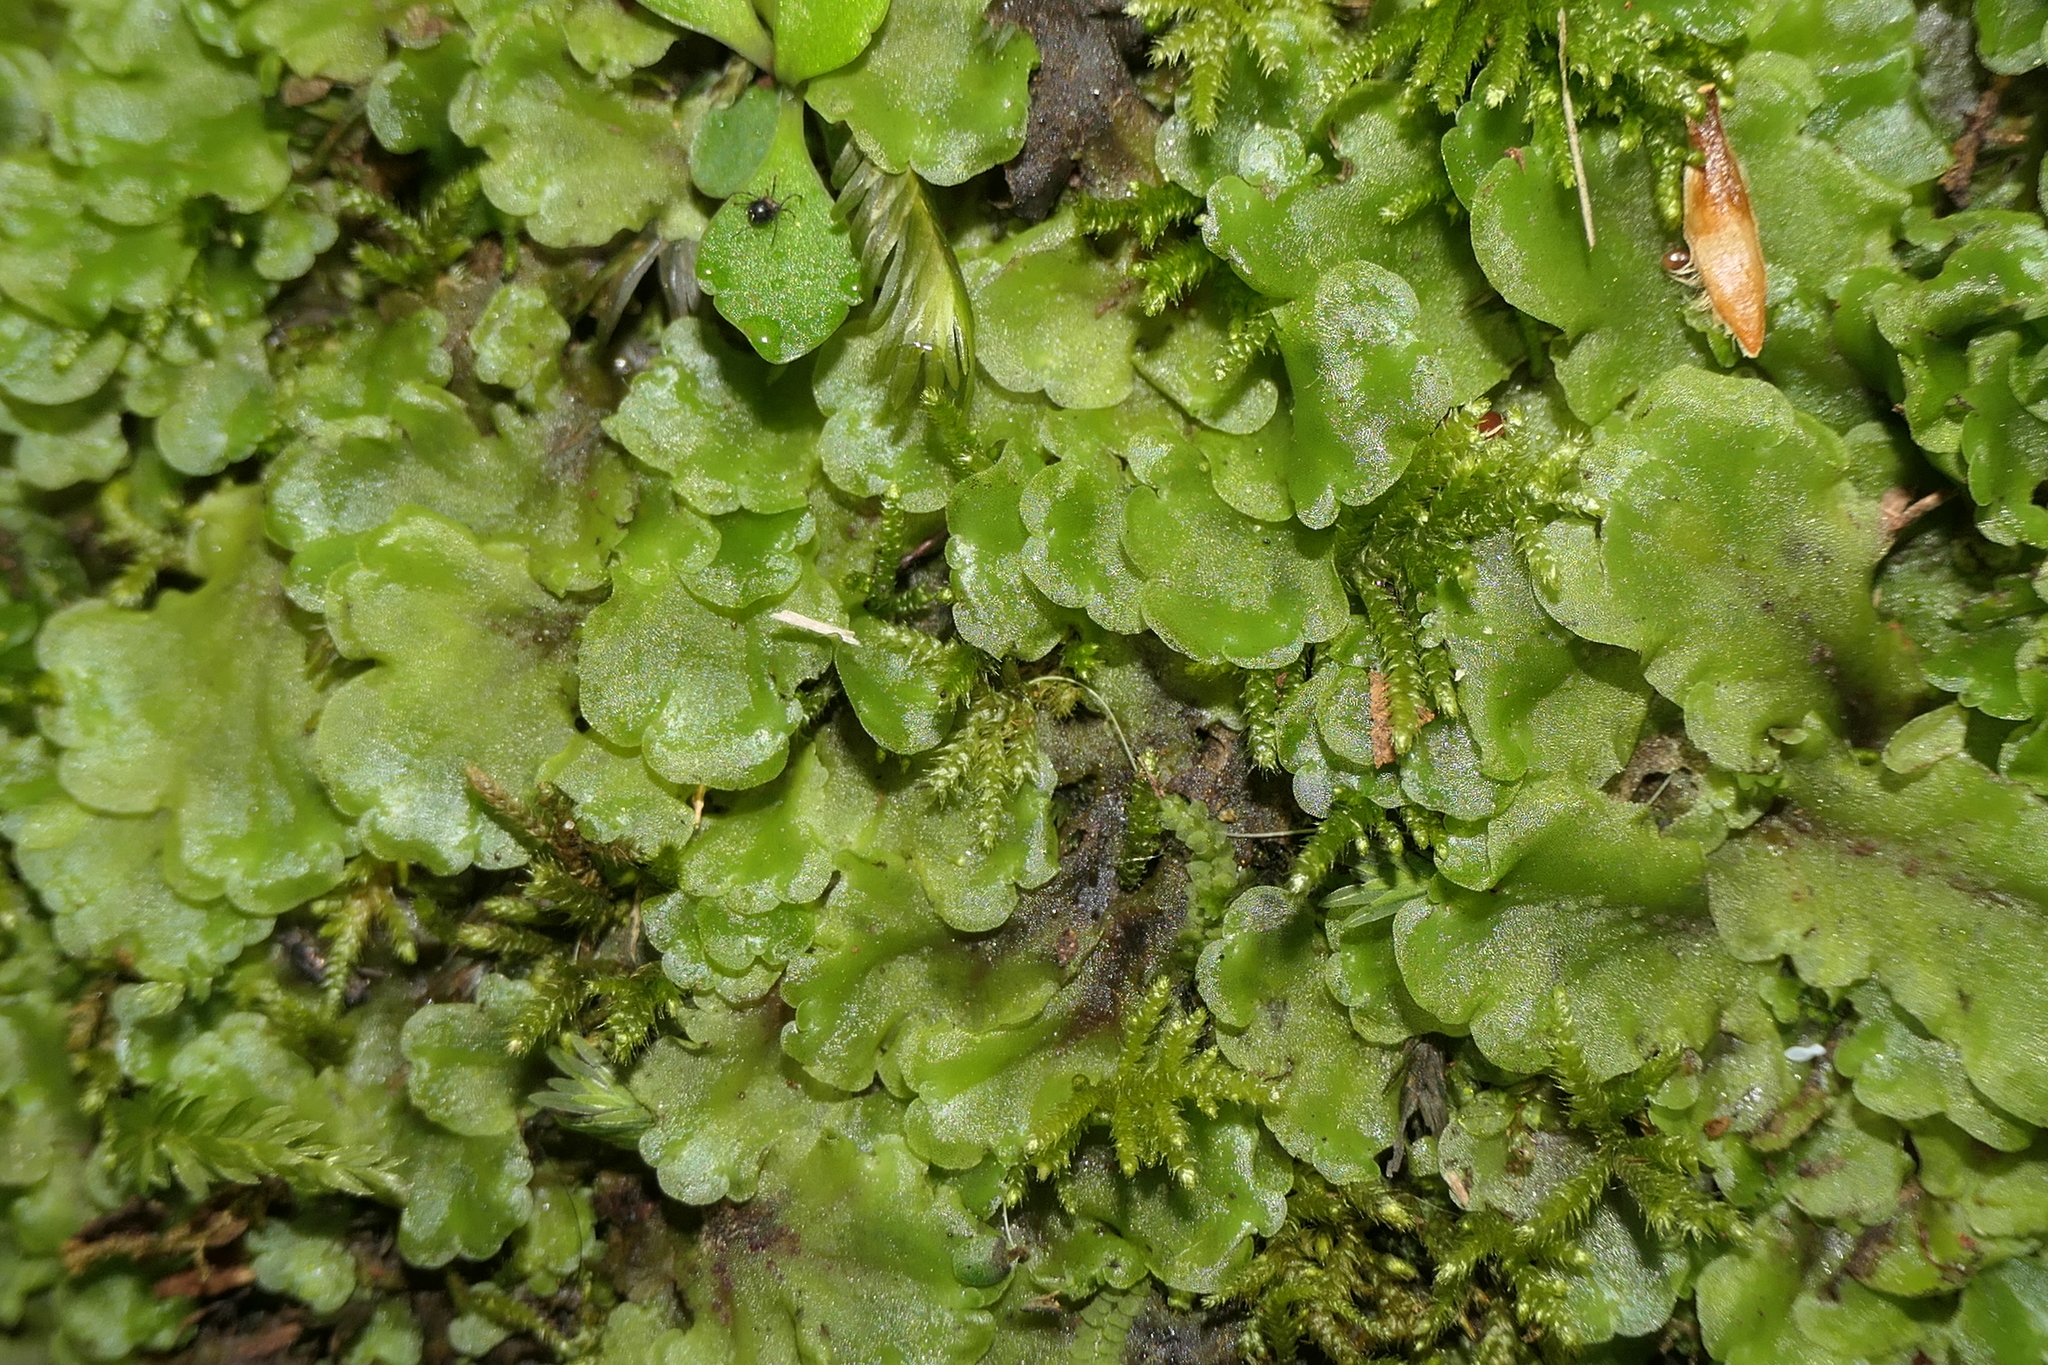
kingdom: Plantae
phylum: Marchantiophyta
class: Jungermanniopsida
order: Pelliales
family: Pelliaceae
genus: Pellia
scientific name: Pellia epiphylla
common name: Common pellia
